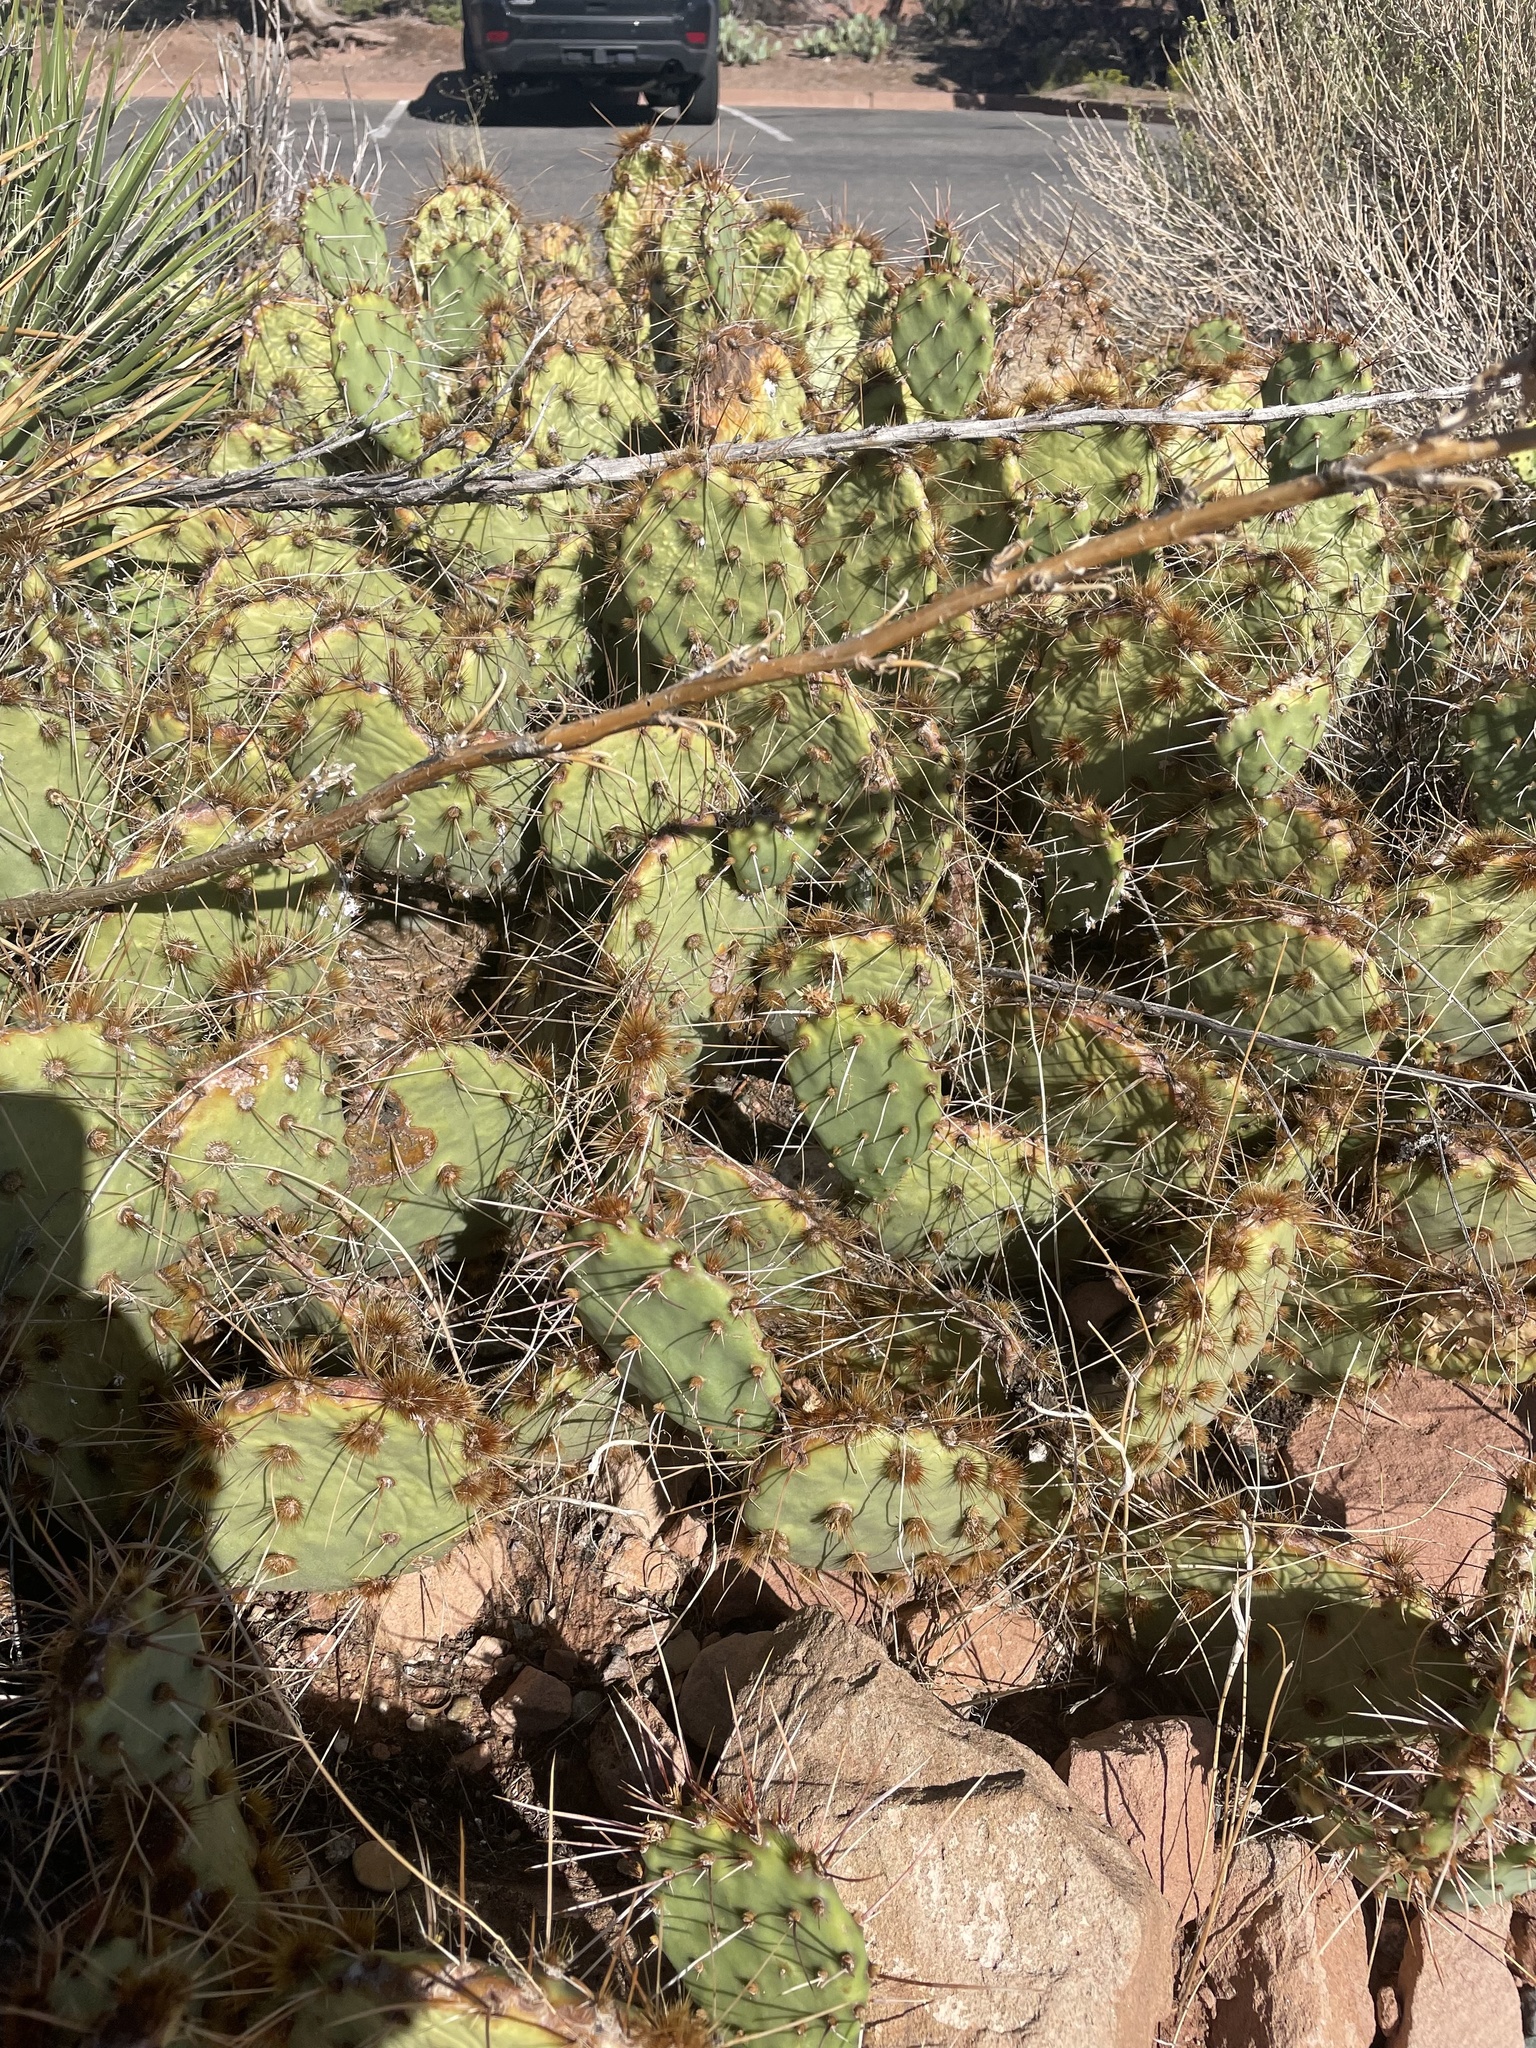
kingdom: Plantae
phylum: Tracheophyta
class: Magnoliopsida
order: Caryophyllales
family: Cactaceae
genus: Opuntia
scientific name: Opuntia phaeacantha
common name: New mexico prickly-pear
